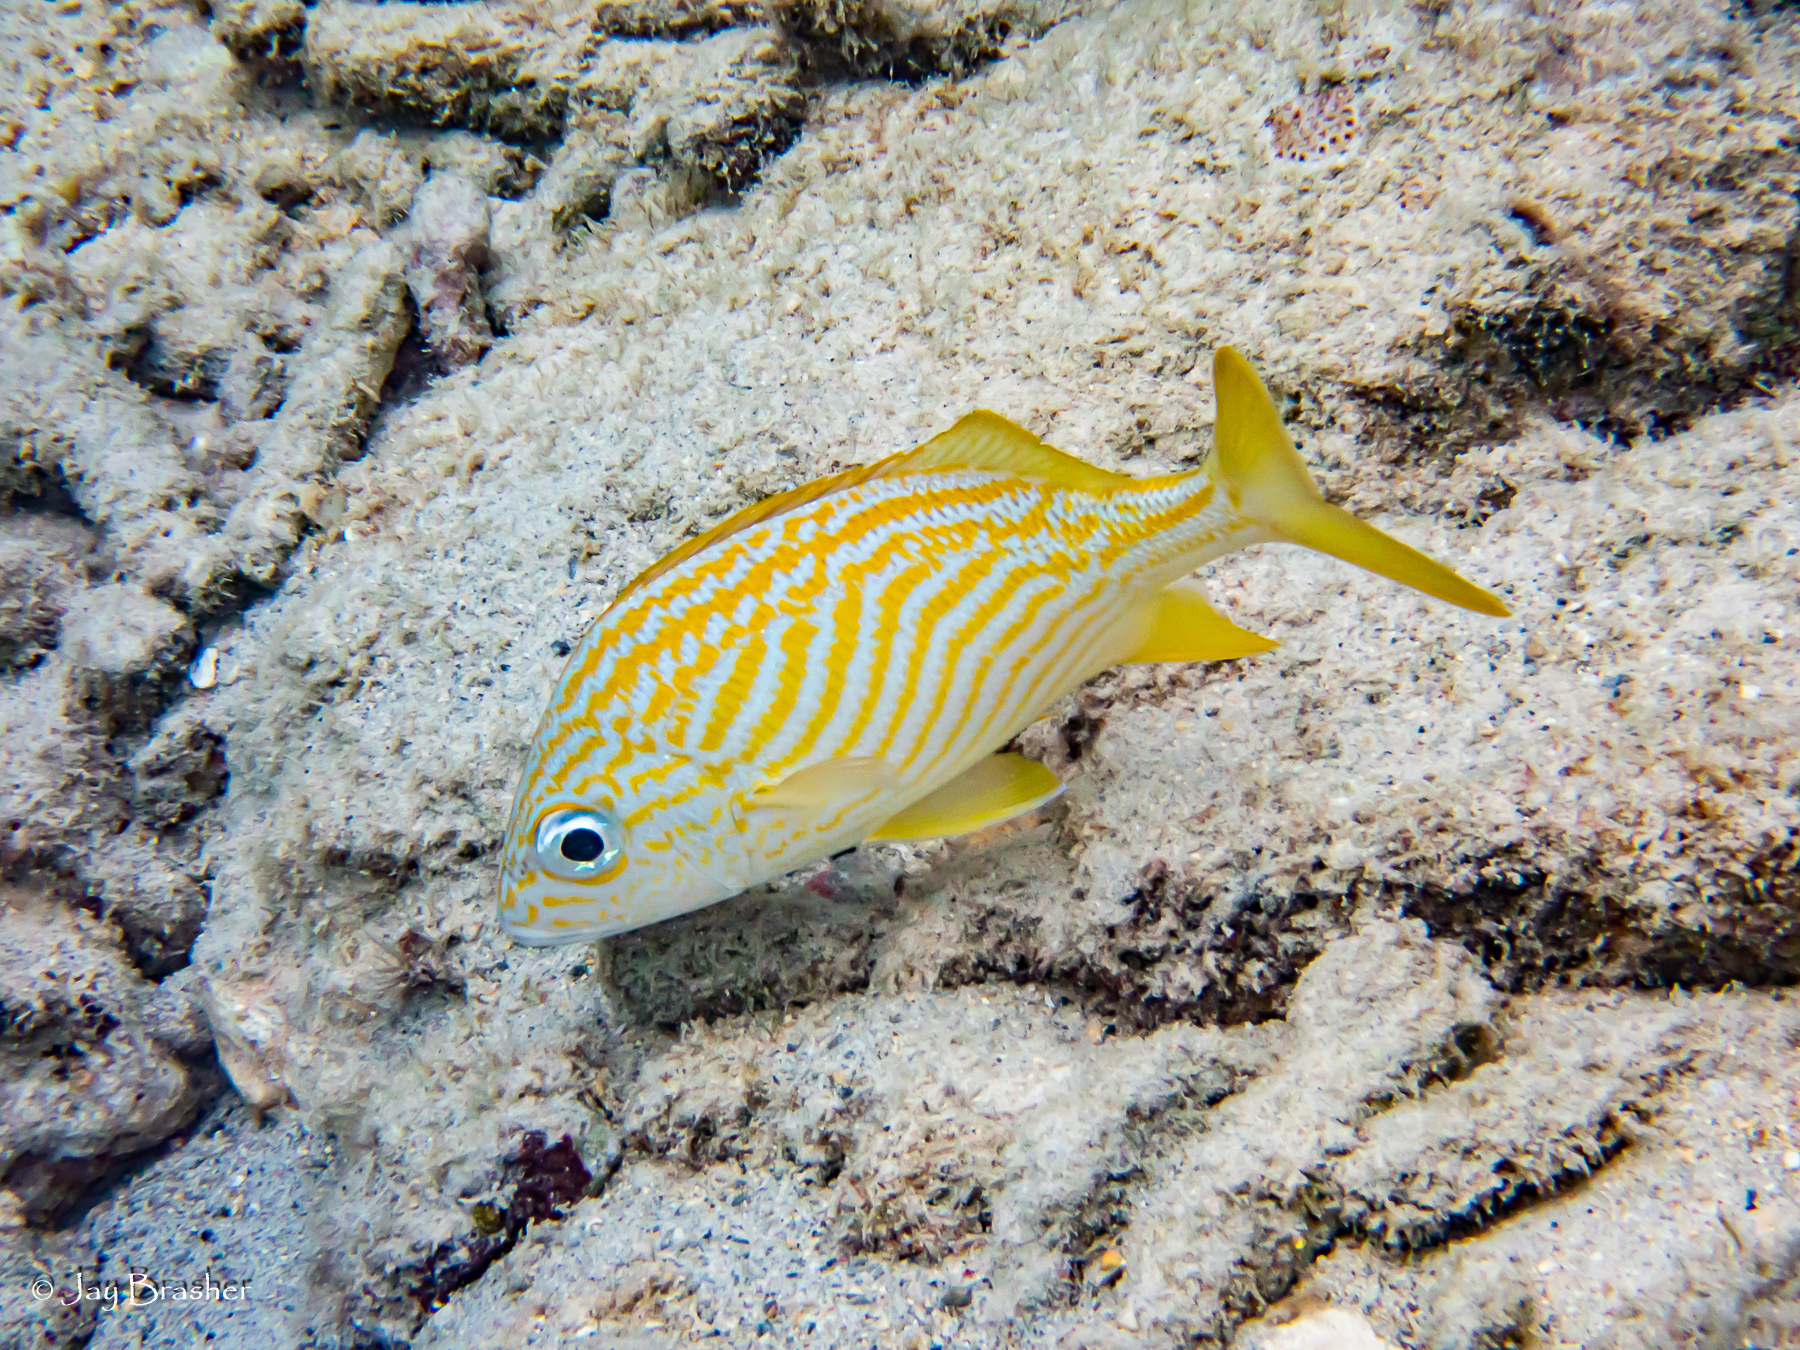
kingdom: Animalia
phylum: Chordata
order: Perciformes
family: Haemulidae
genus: Haemulon
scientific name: Haemulon flavolineatum
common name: French grunt
